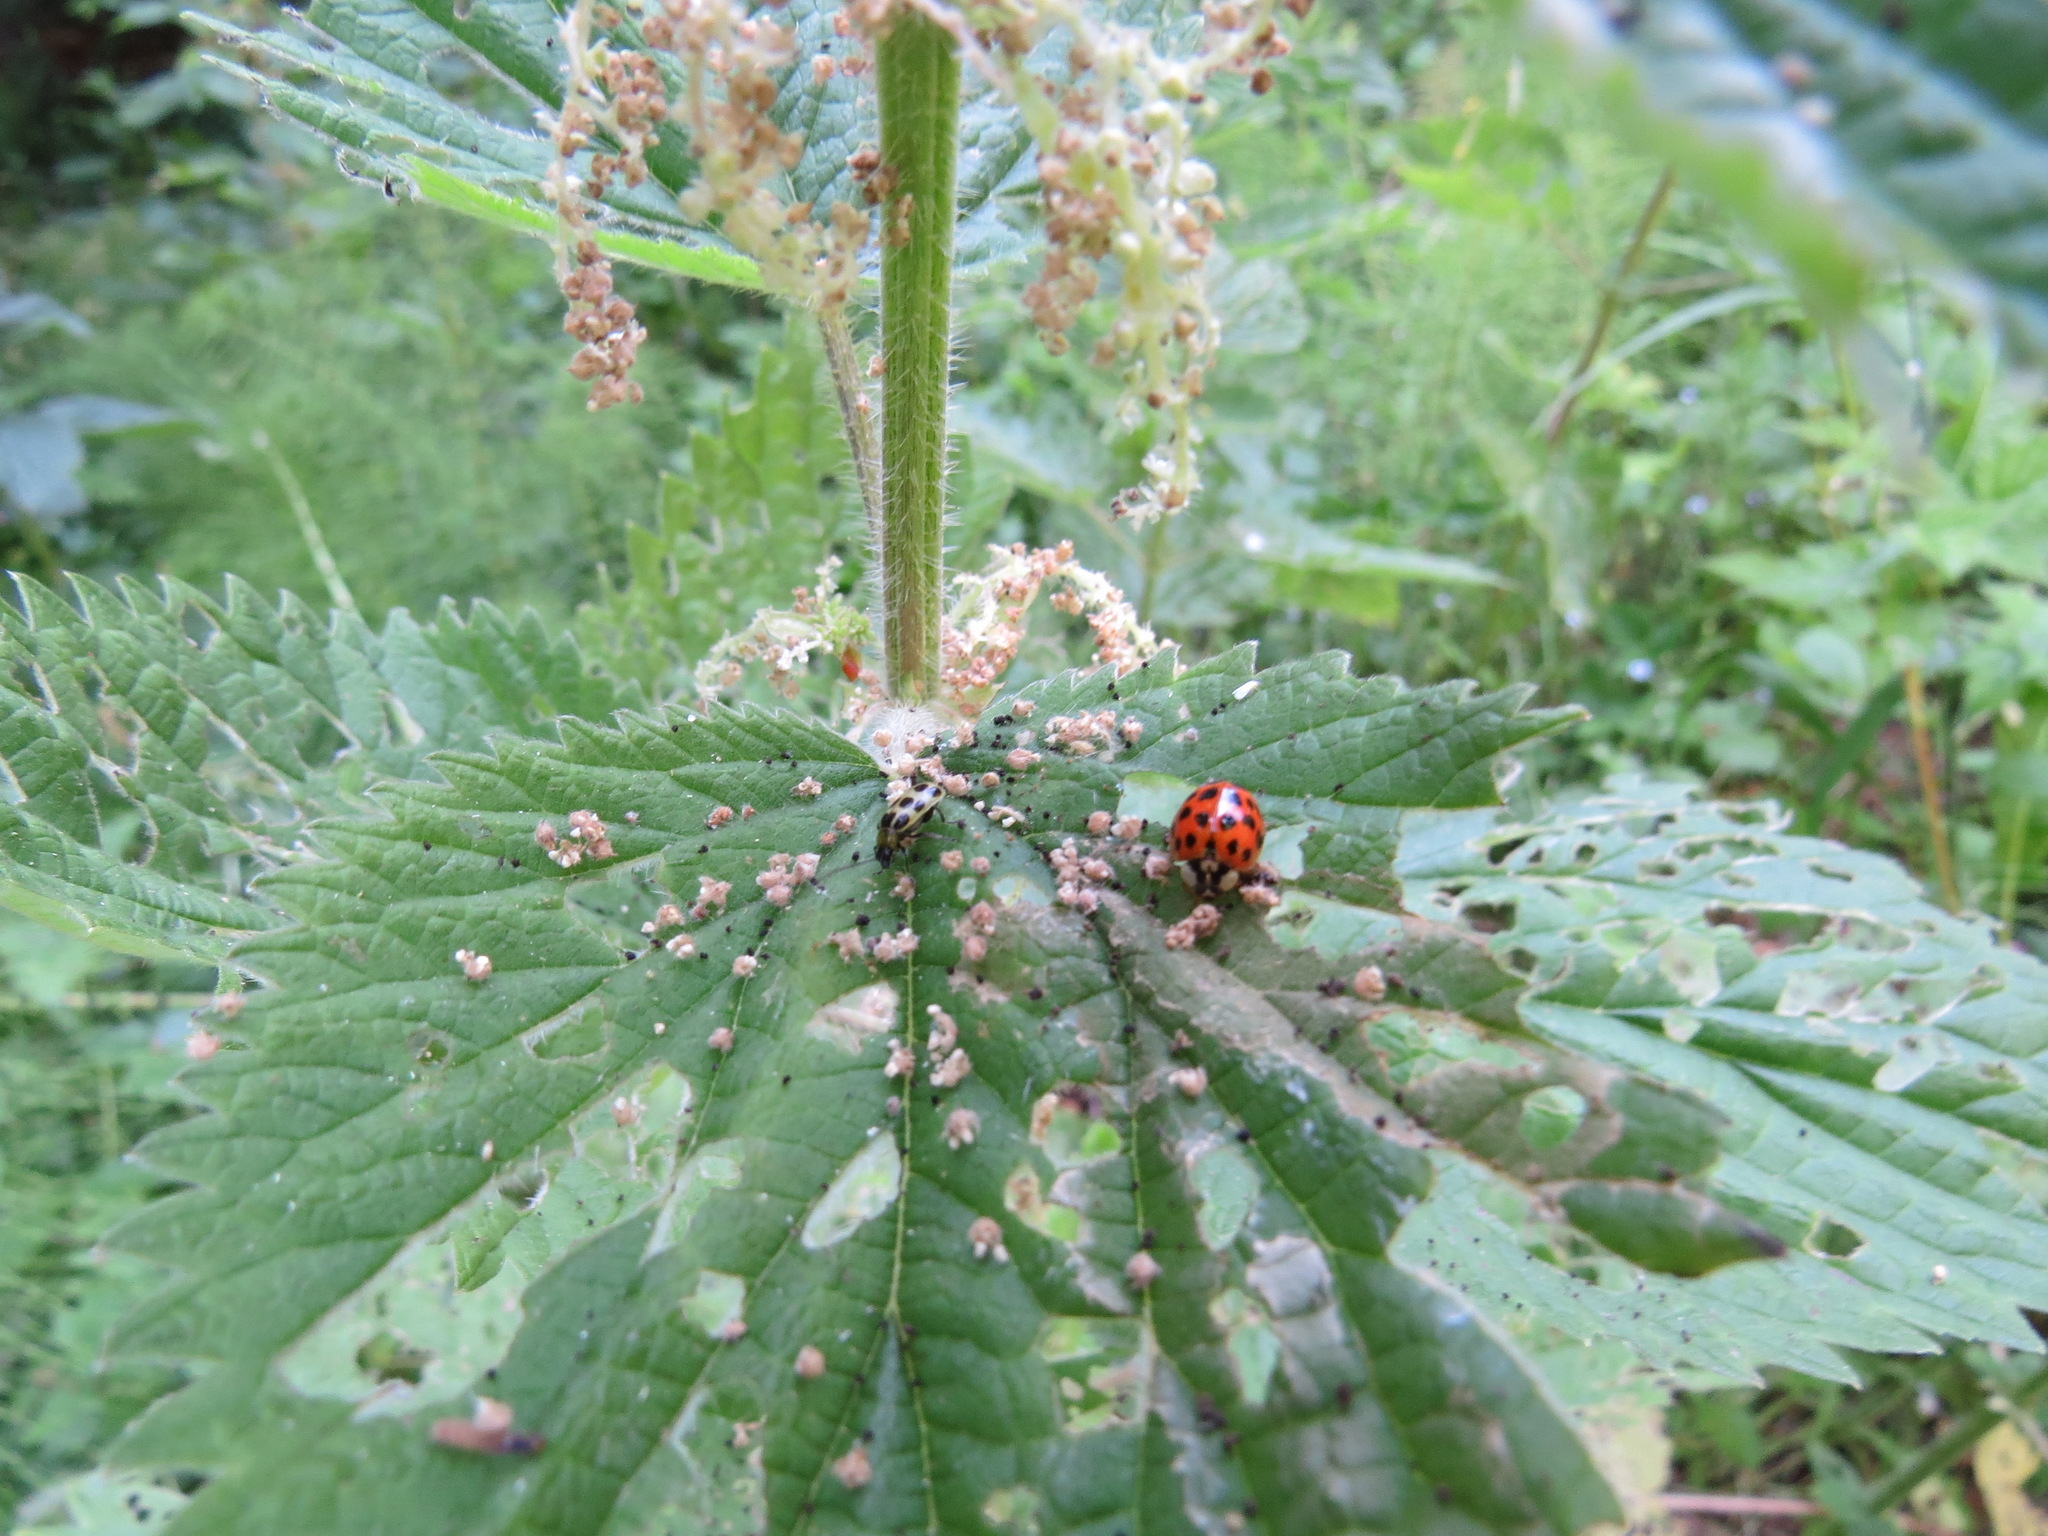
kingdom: Animalia
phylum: Arthropoda
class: Insecta
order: Coleoptera
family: Coccinellidae
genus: Harmonia
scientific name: Harmonia axyridis
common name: Harlequin ladybird
